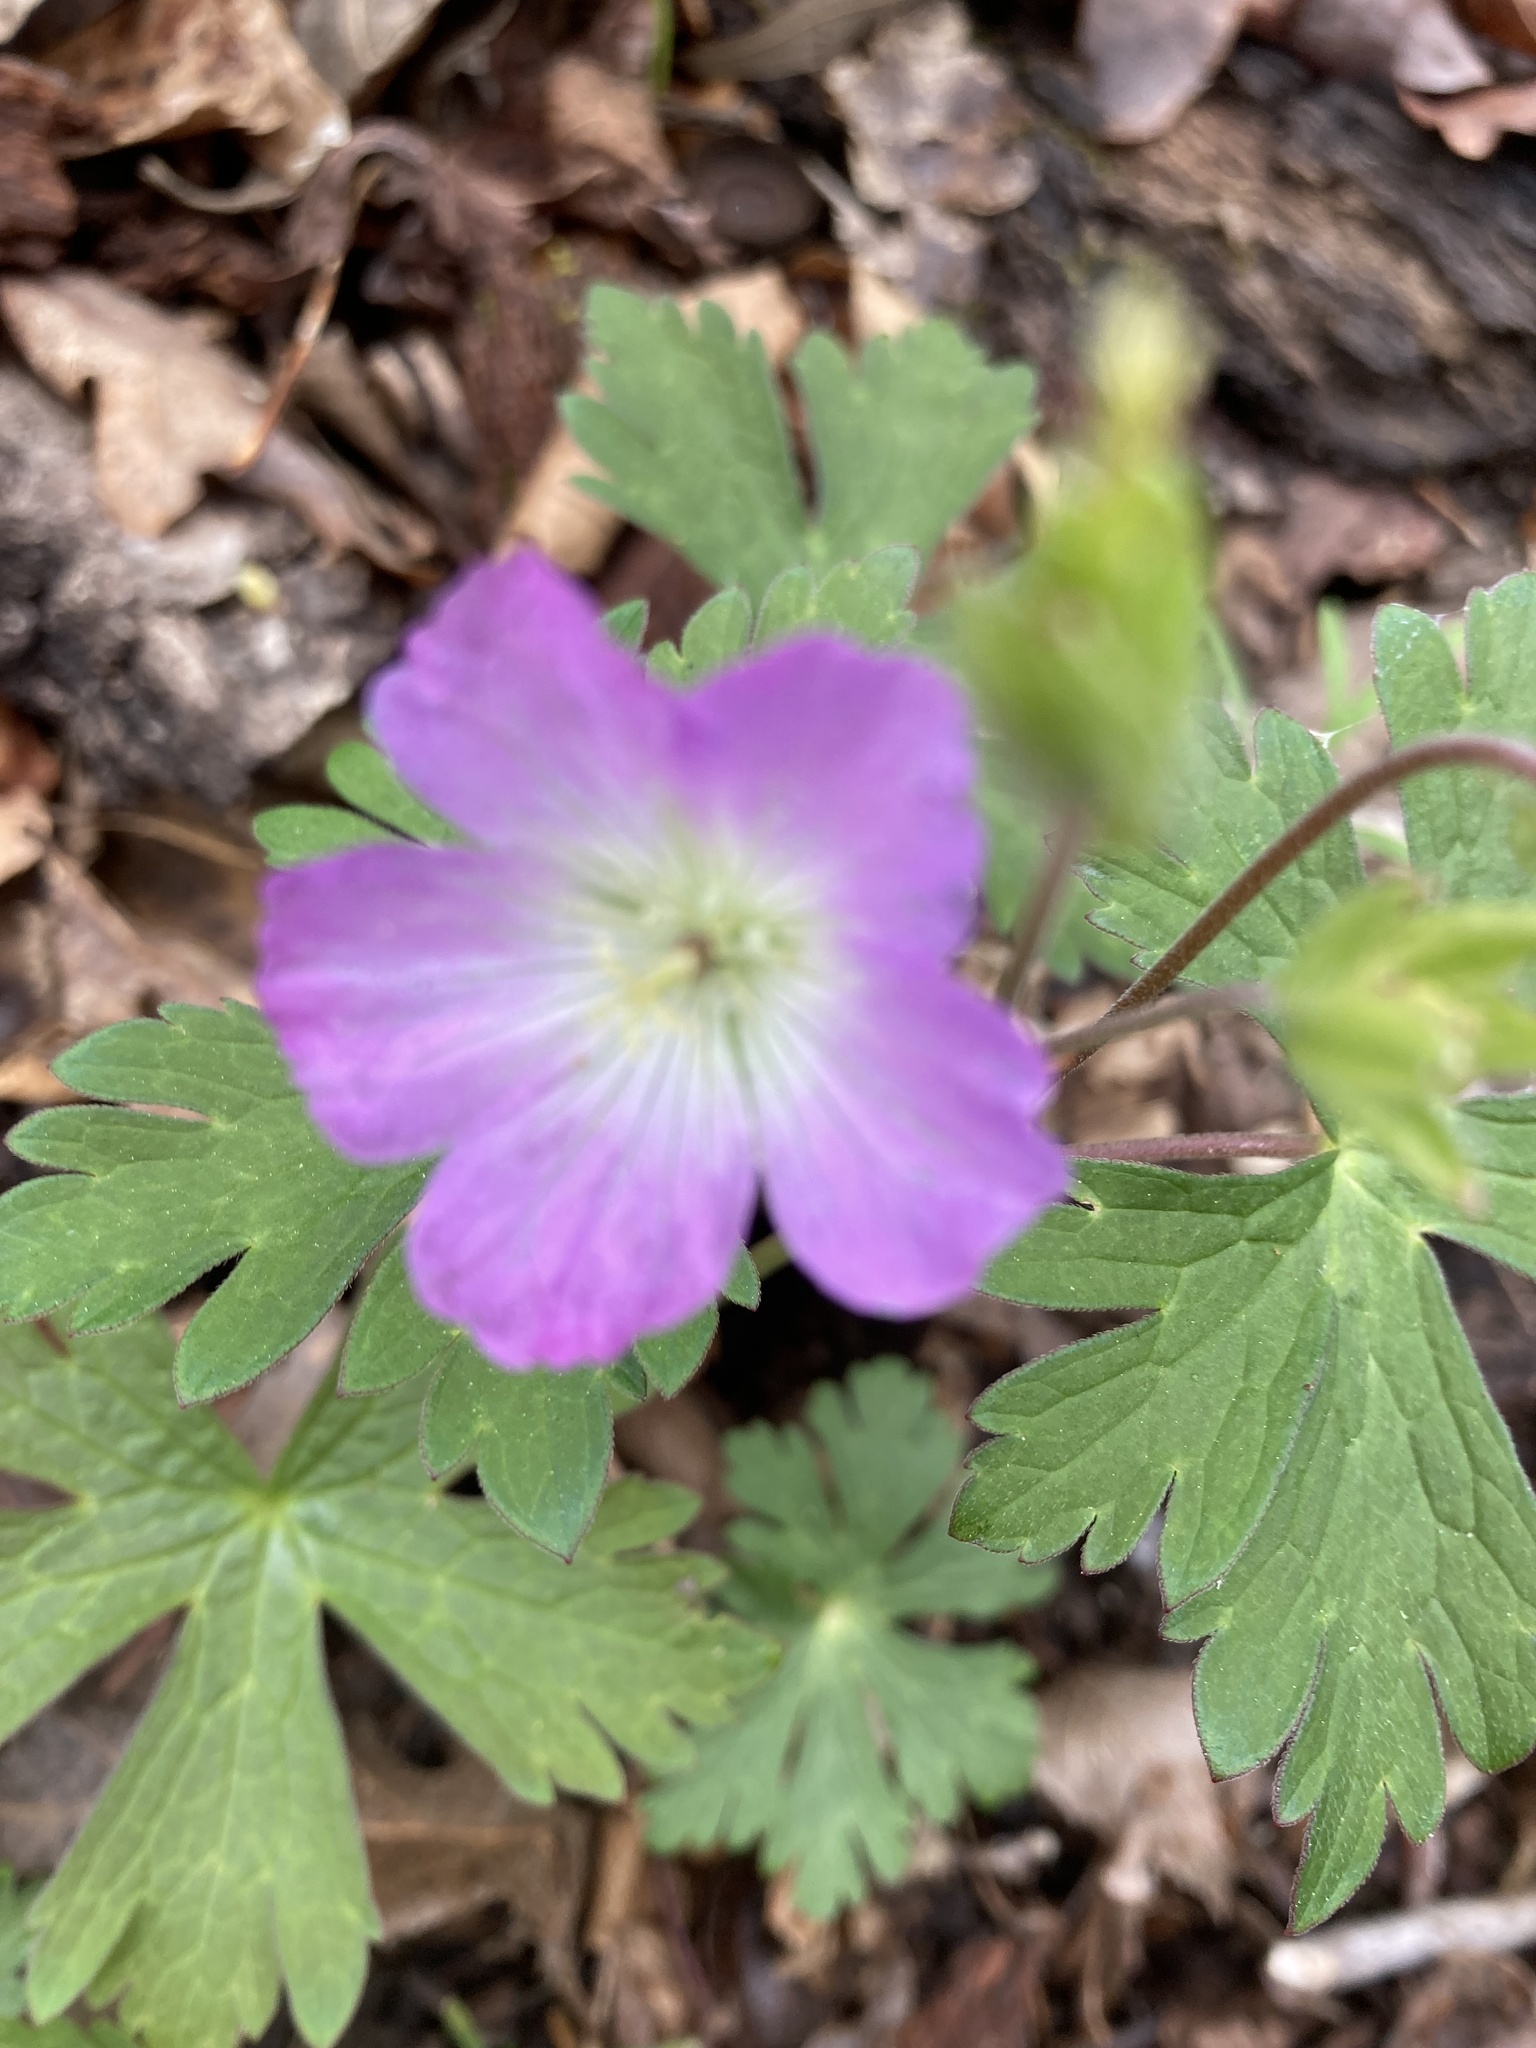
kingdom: Plantae
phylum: Tracheophyta
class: Magnoliopsida
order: Geraniales
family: Geraniaceae
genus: Geranium
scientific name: Geranium maculatum
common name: Spotted geranium
